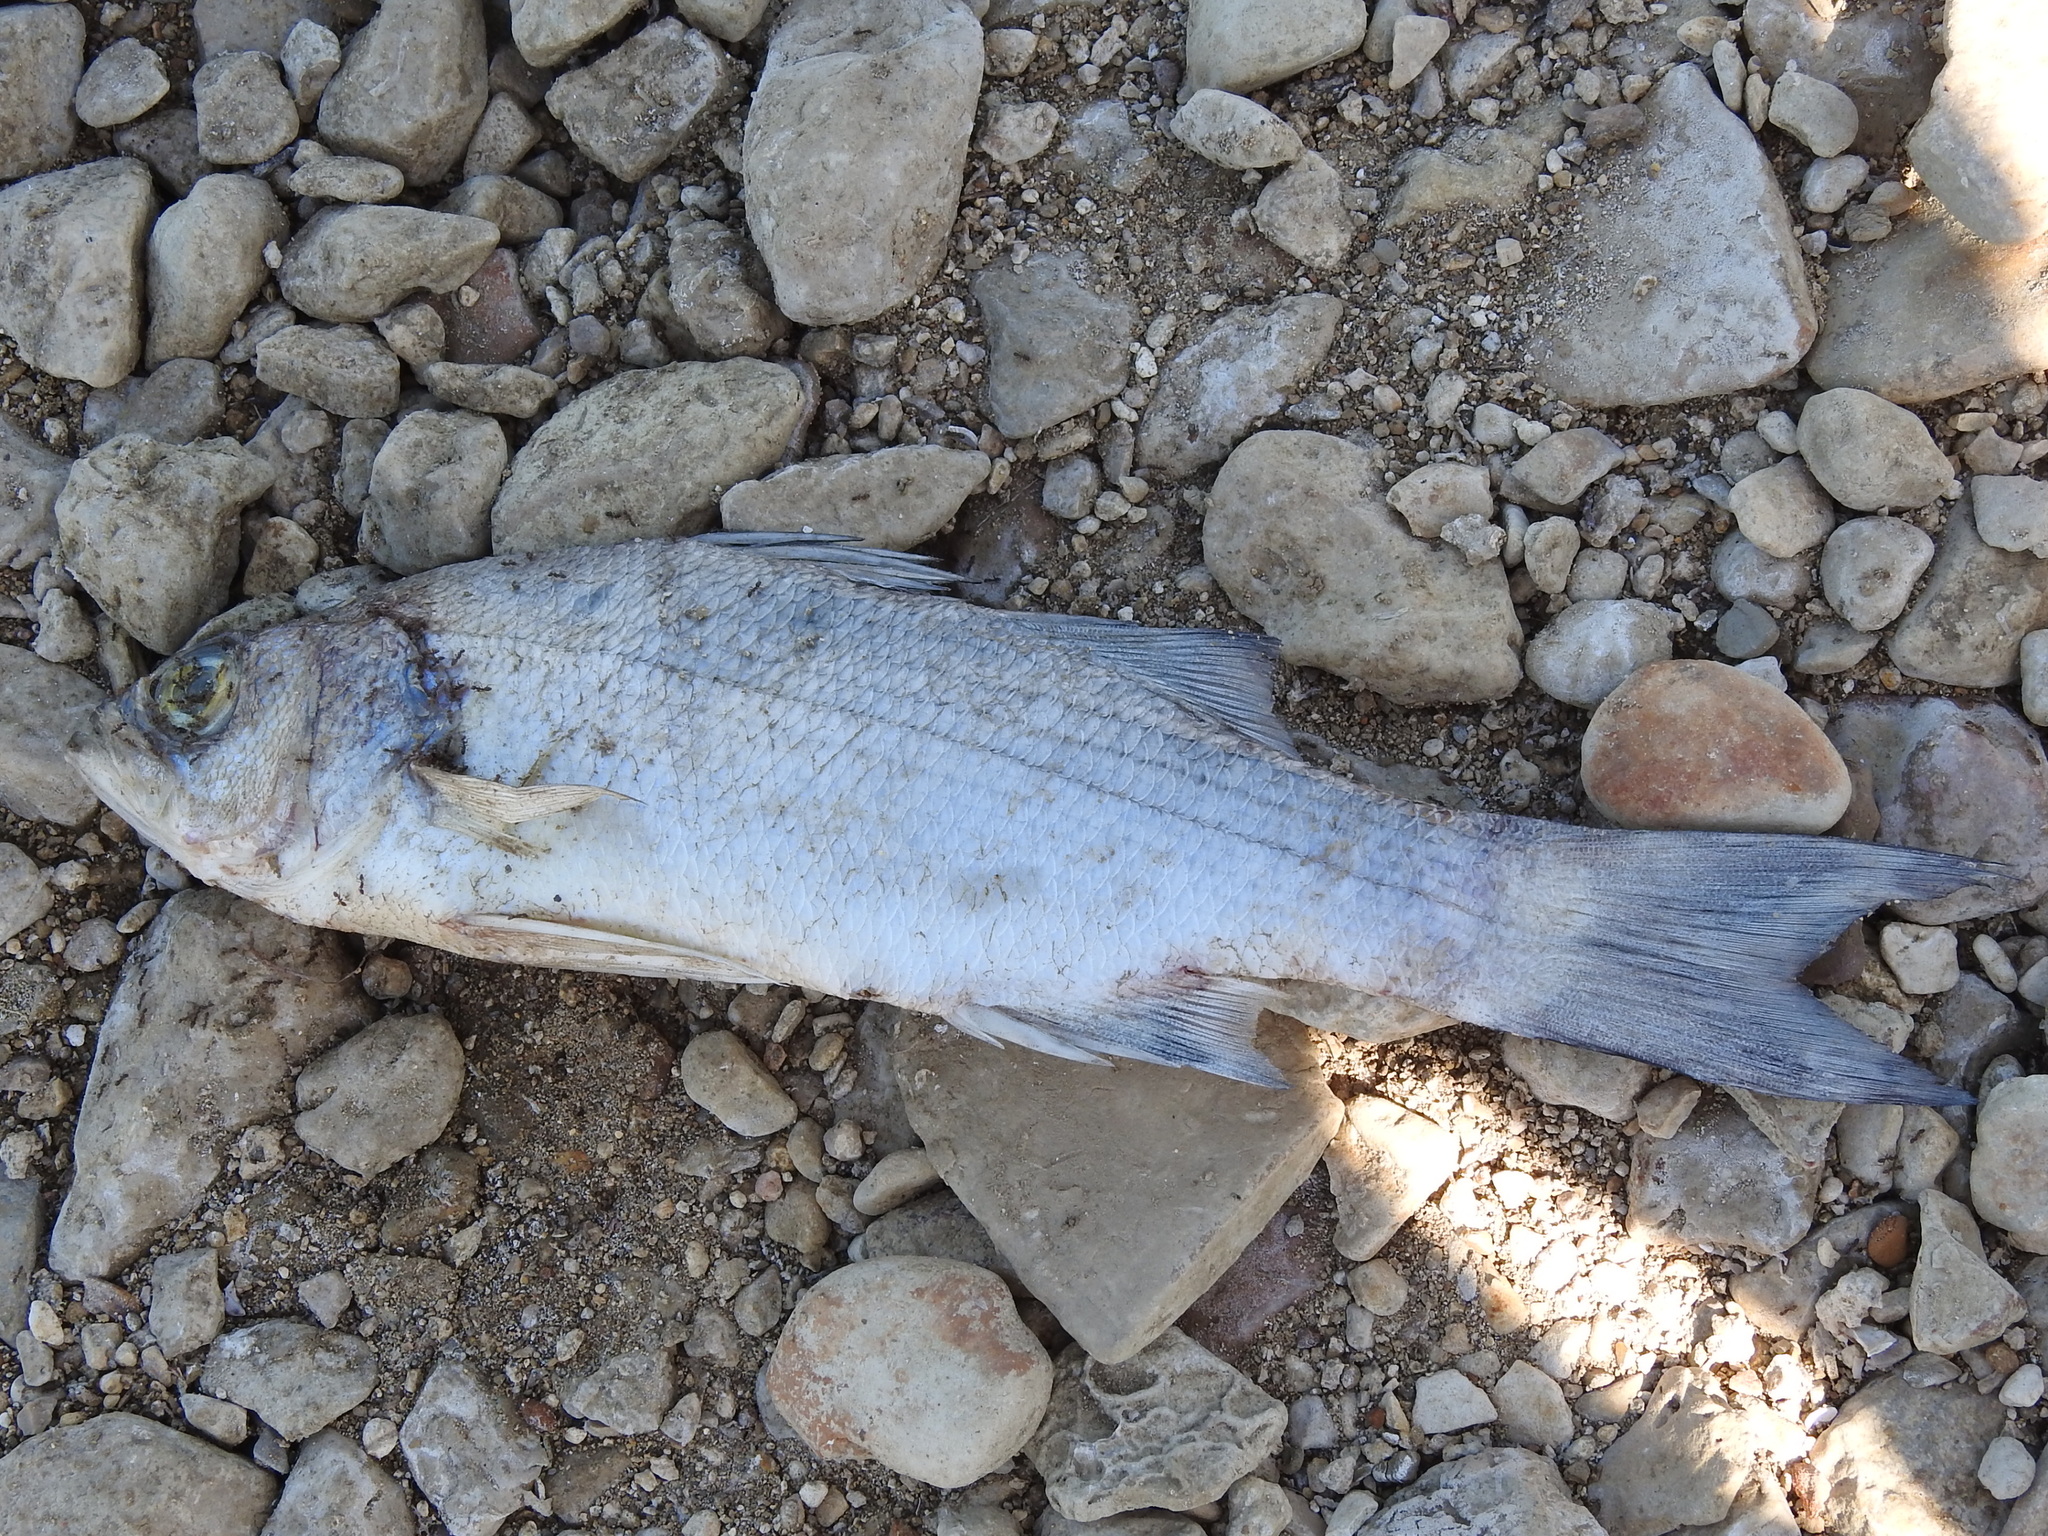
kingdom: Animalia
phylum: Chordata
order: Perciformes
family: Moronidae
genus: Morone
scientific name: Morone chrysops
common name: White bass
